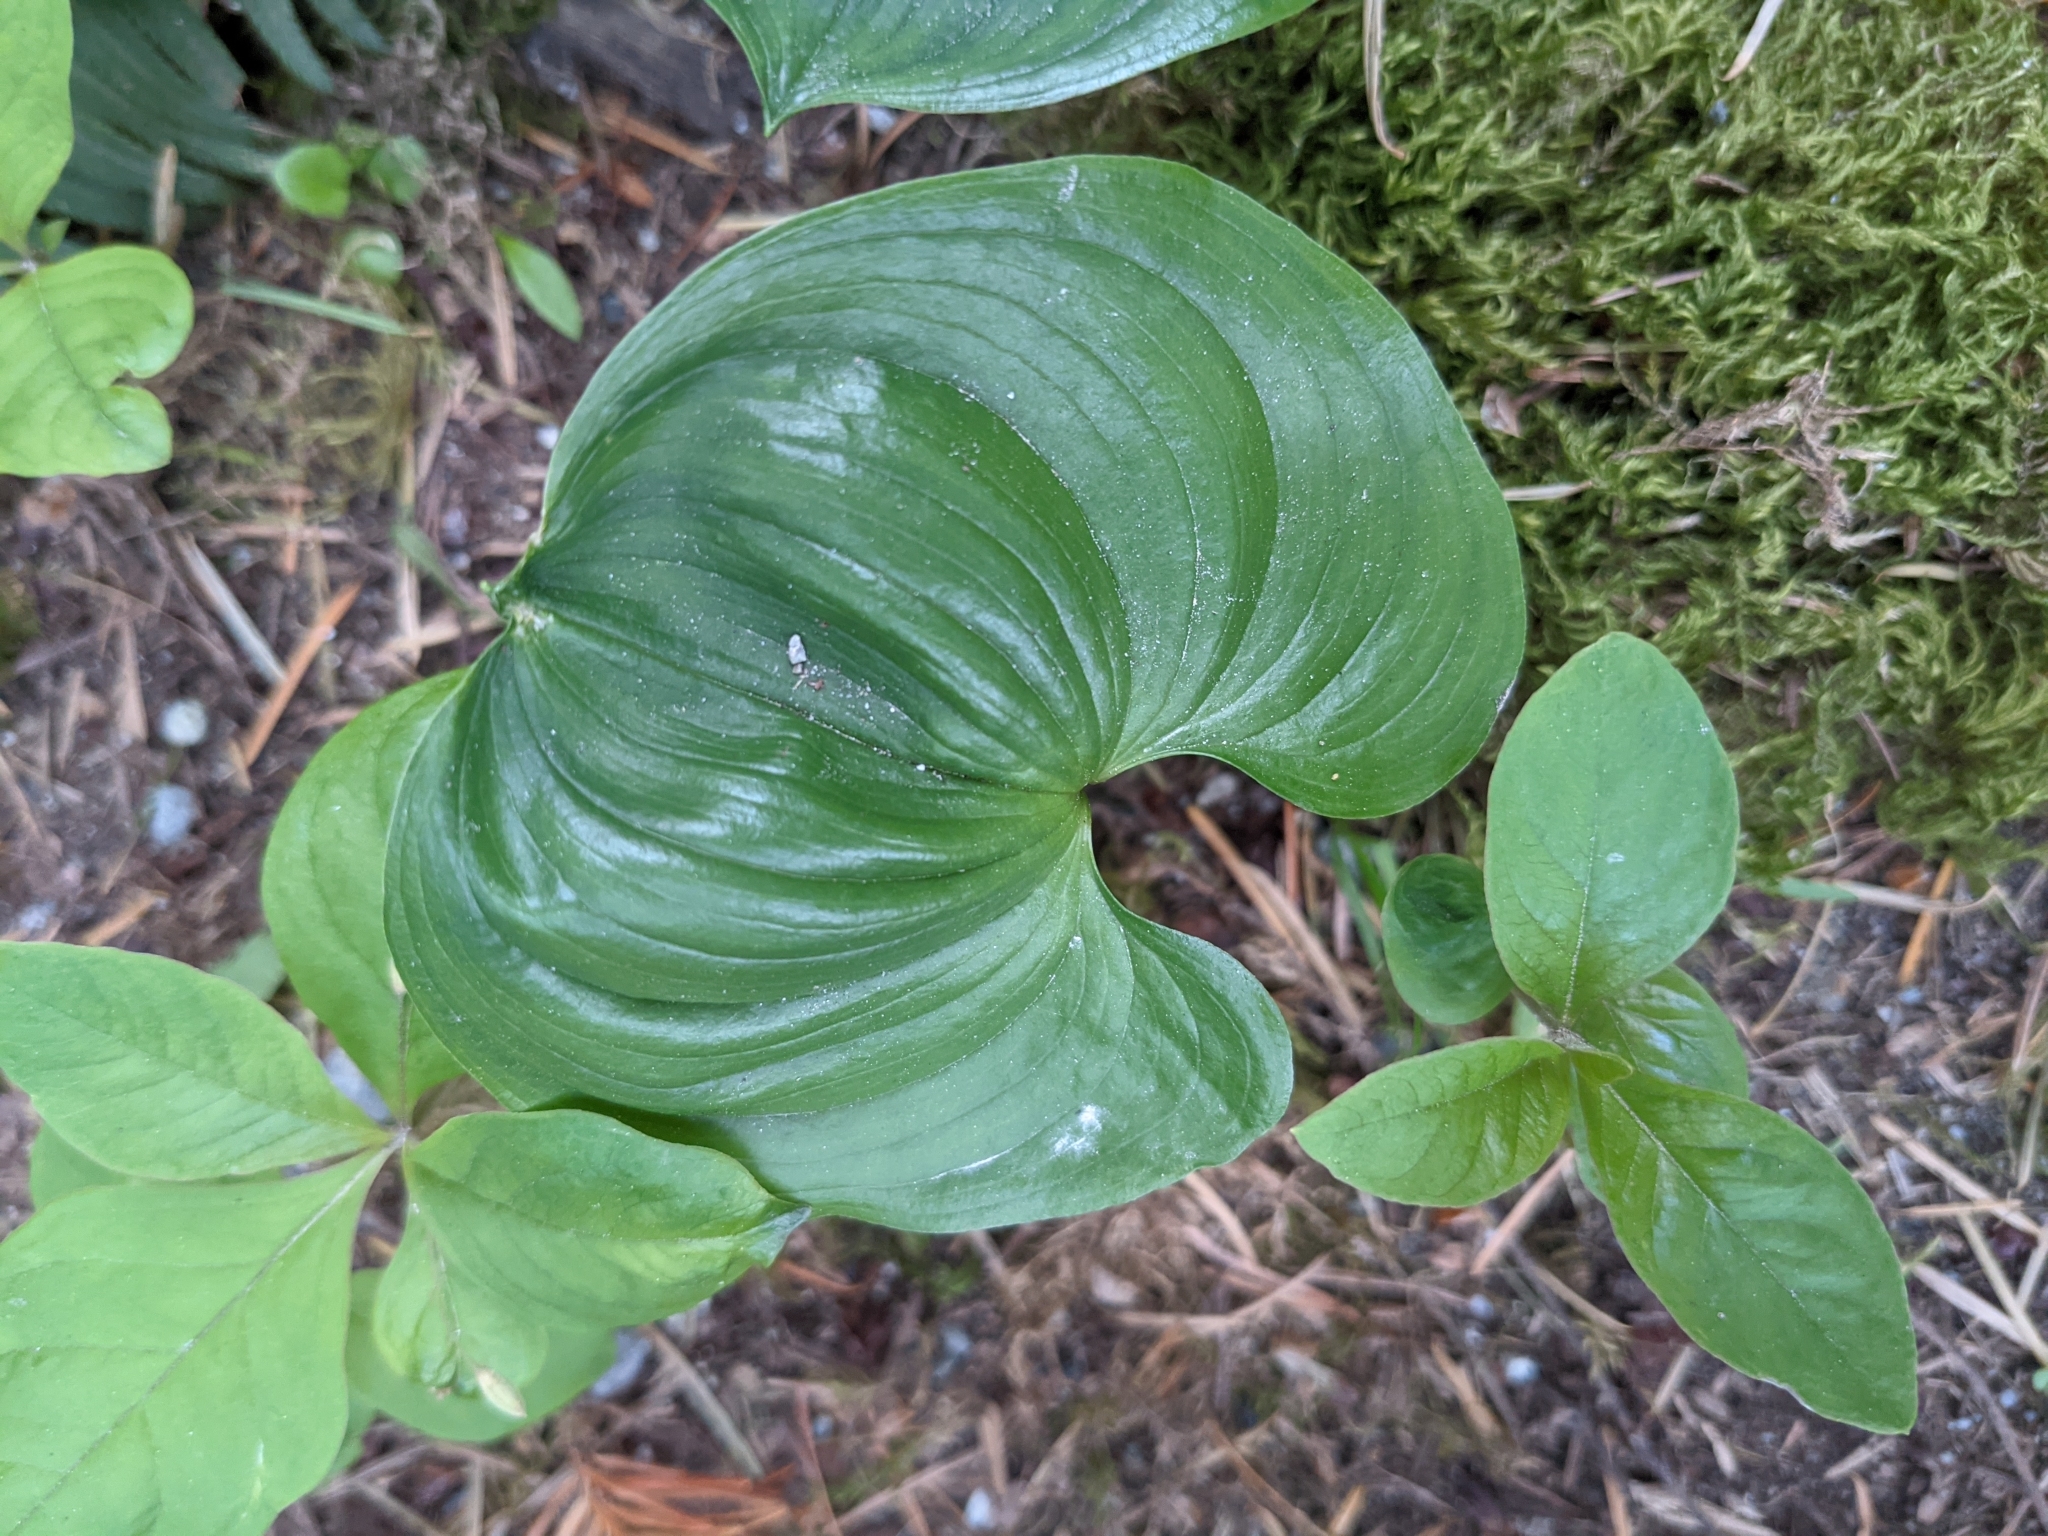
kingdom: Plantae
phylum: Tracheophyta
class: Liliopsida
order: Asparagales
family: Asparagaceae
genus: Maianthemum
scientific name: Maianthemum dilatatum
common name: False lily-of-the-valley
